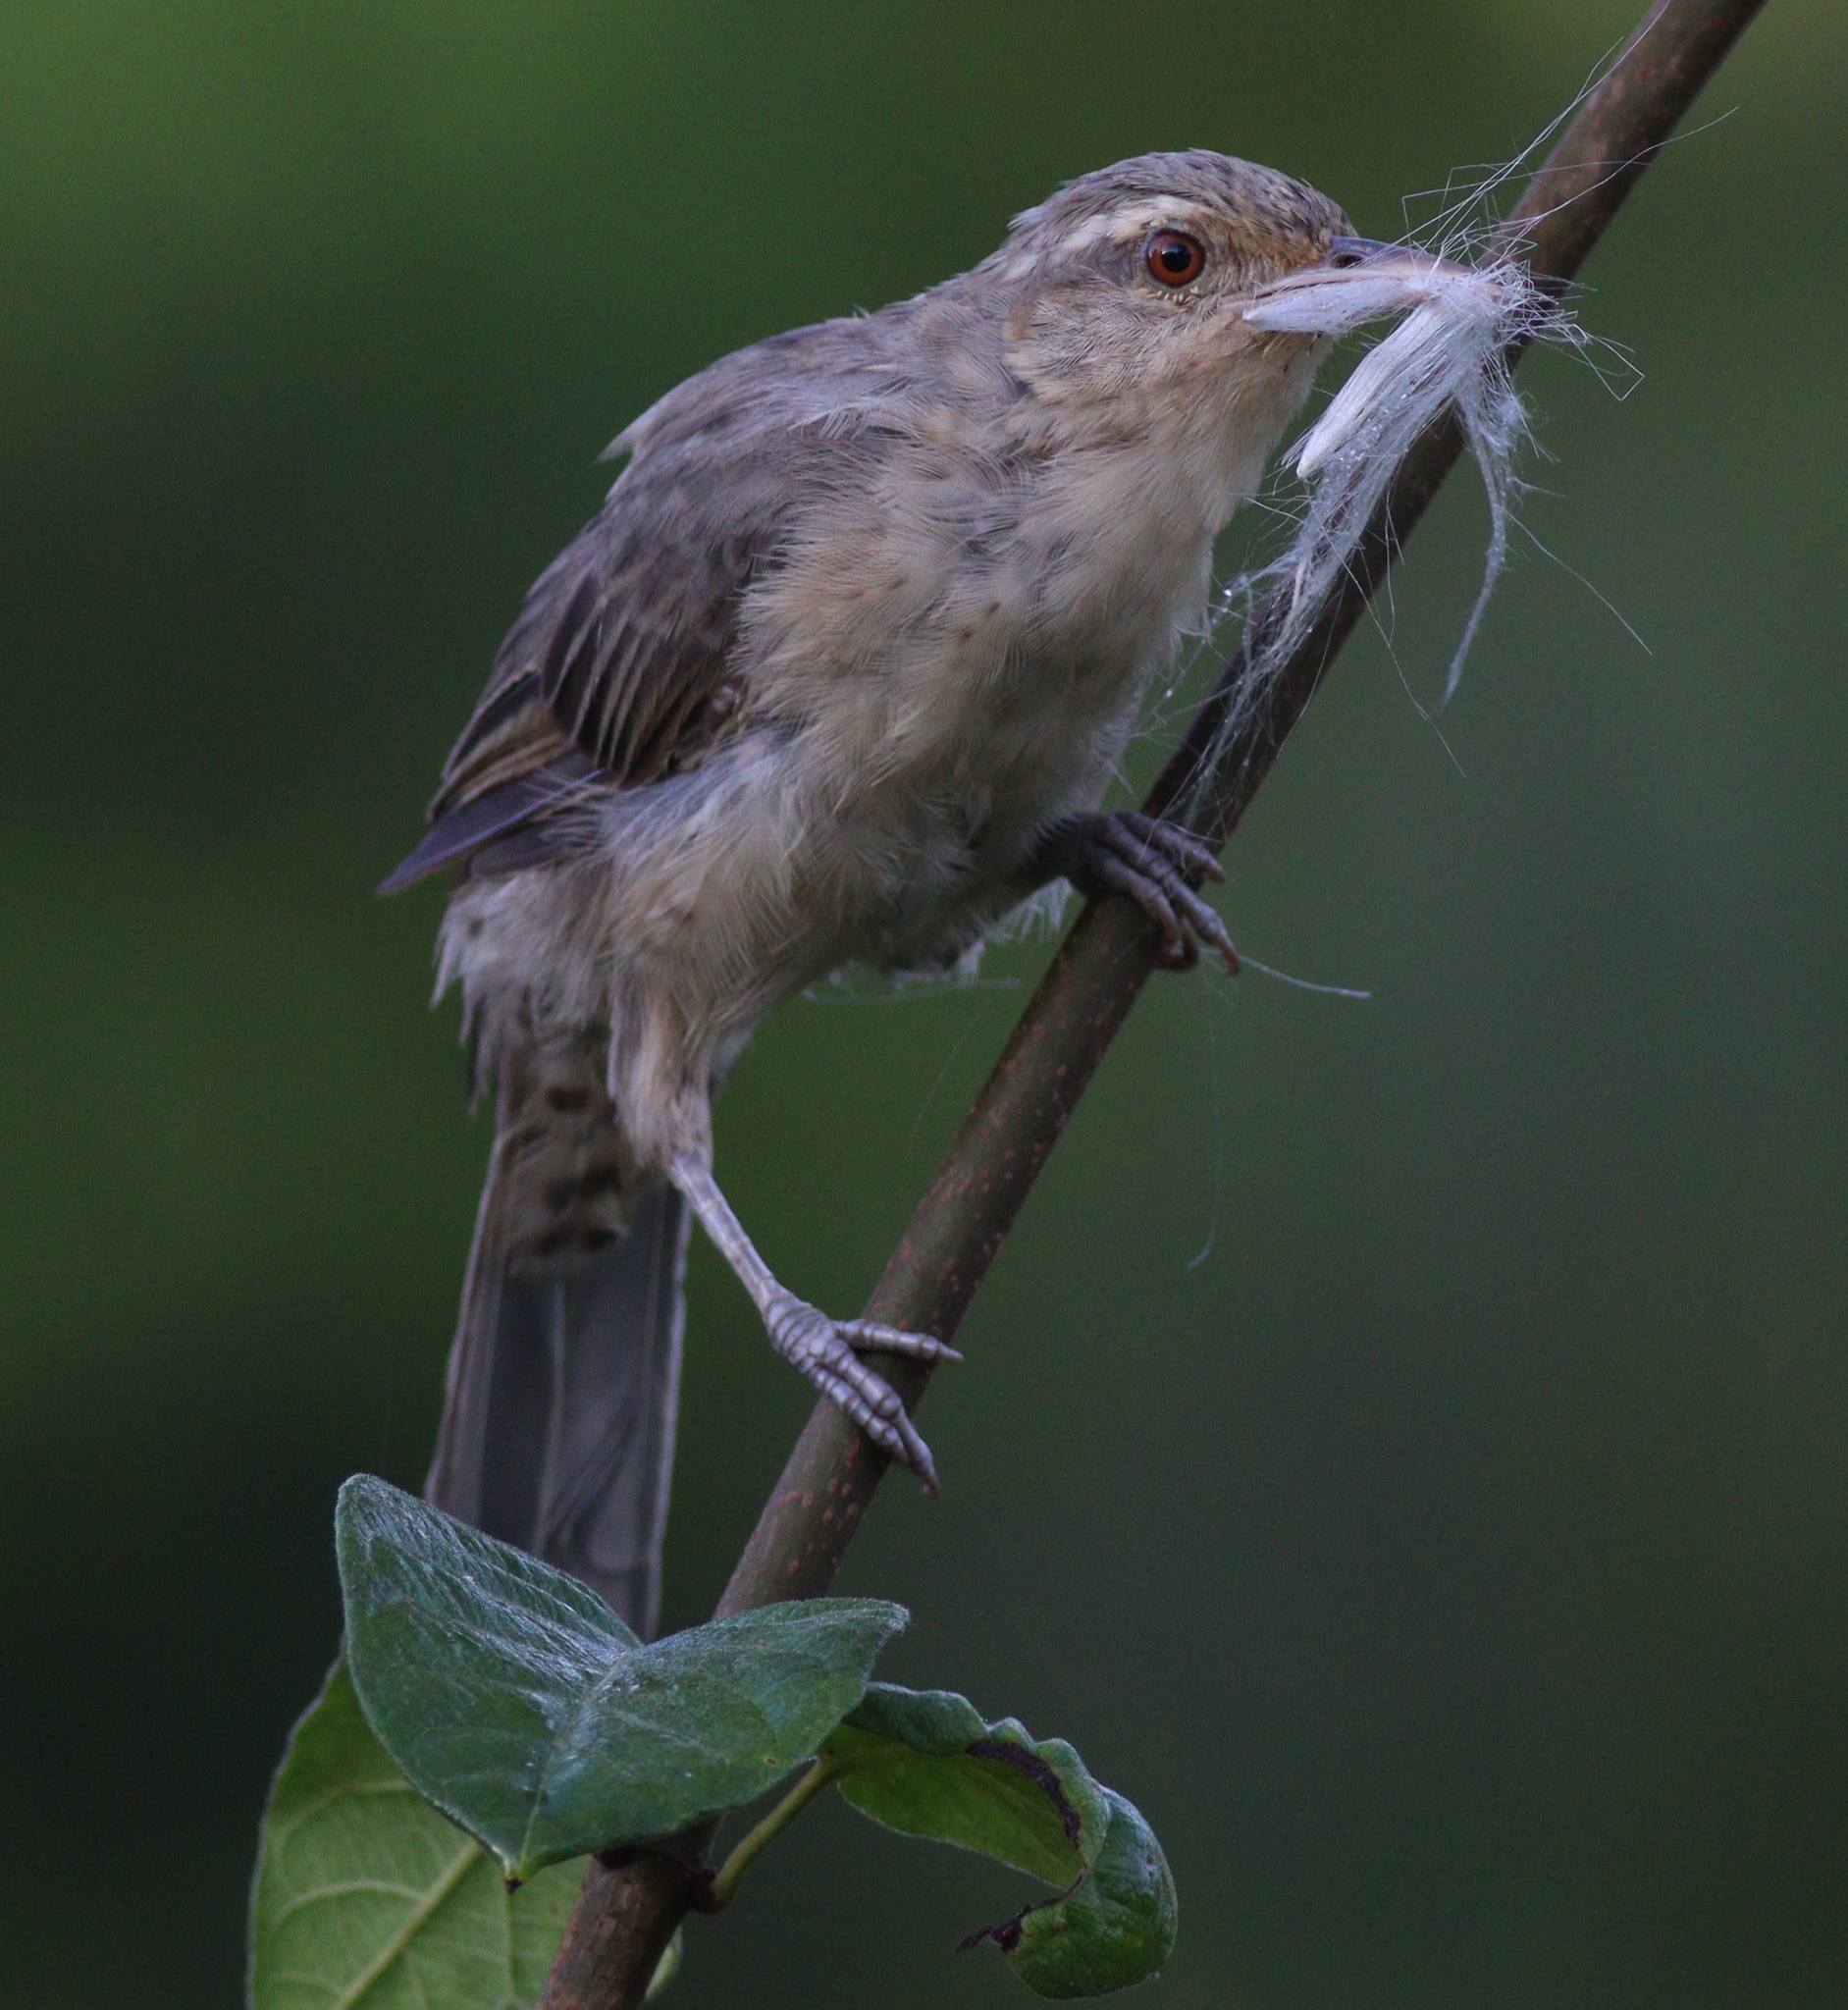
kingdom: Animalia
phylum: Chordata
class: Aves
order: Passeriformes
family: Troglodytidae
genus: Campylorhynchus
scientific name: Campylorhynchus turdinus
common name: Thrush-like wren
